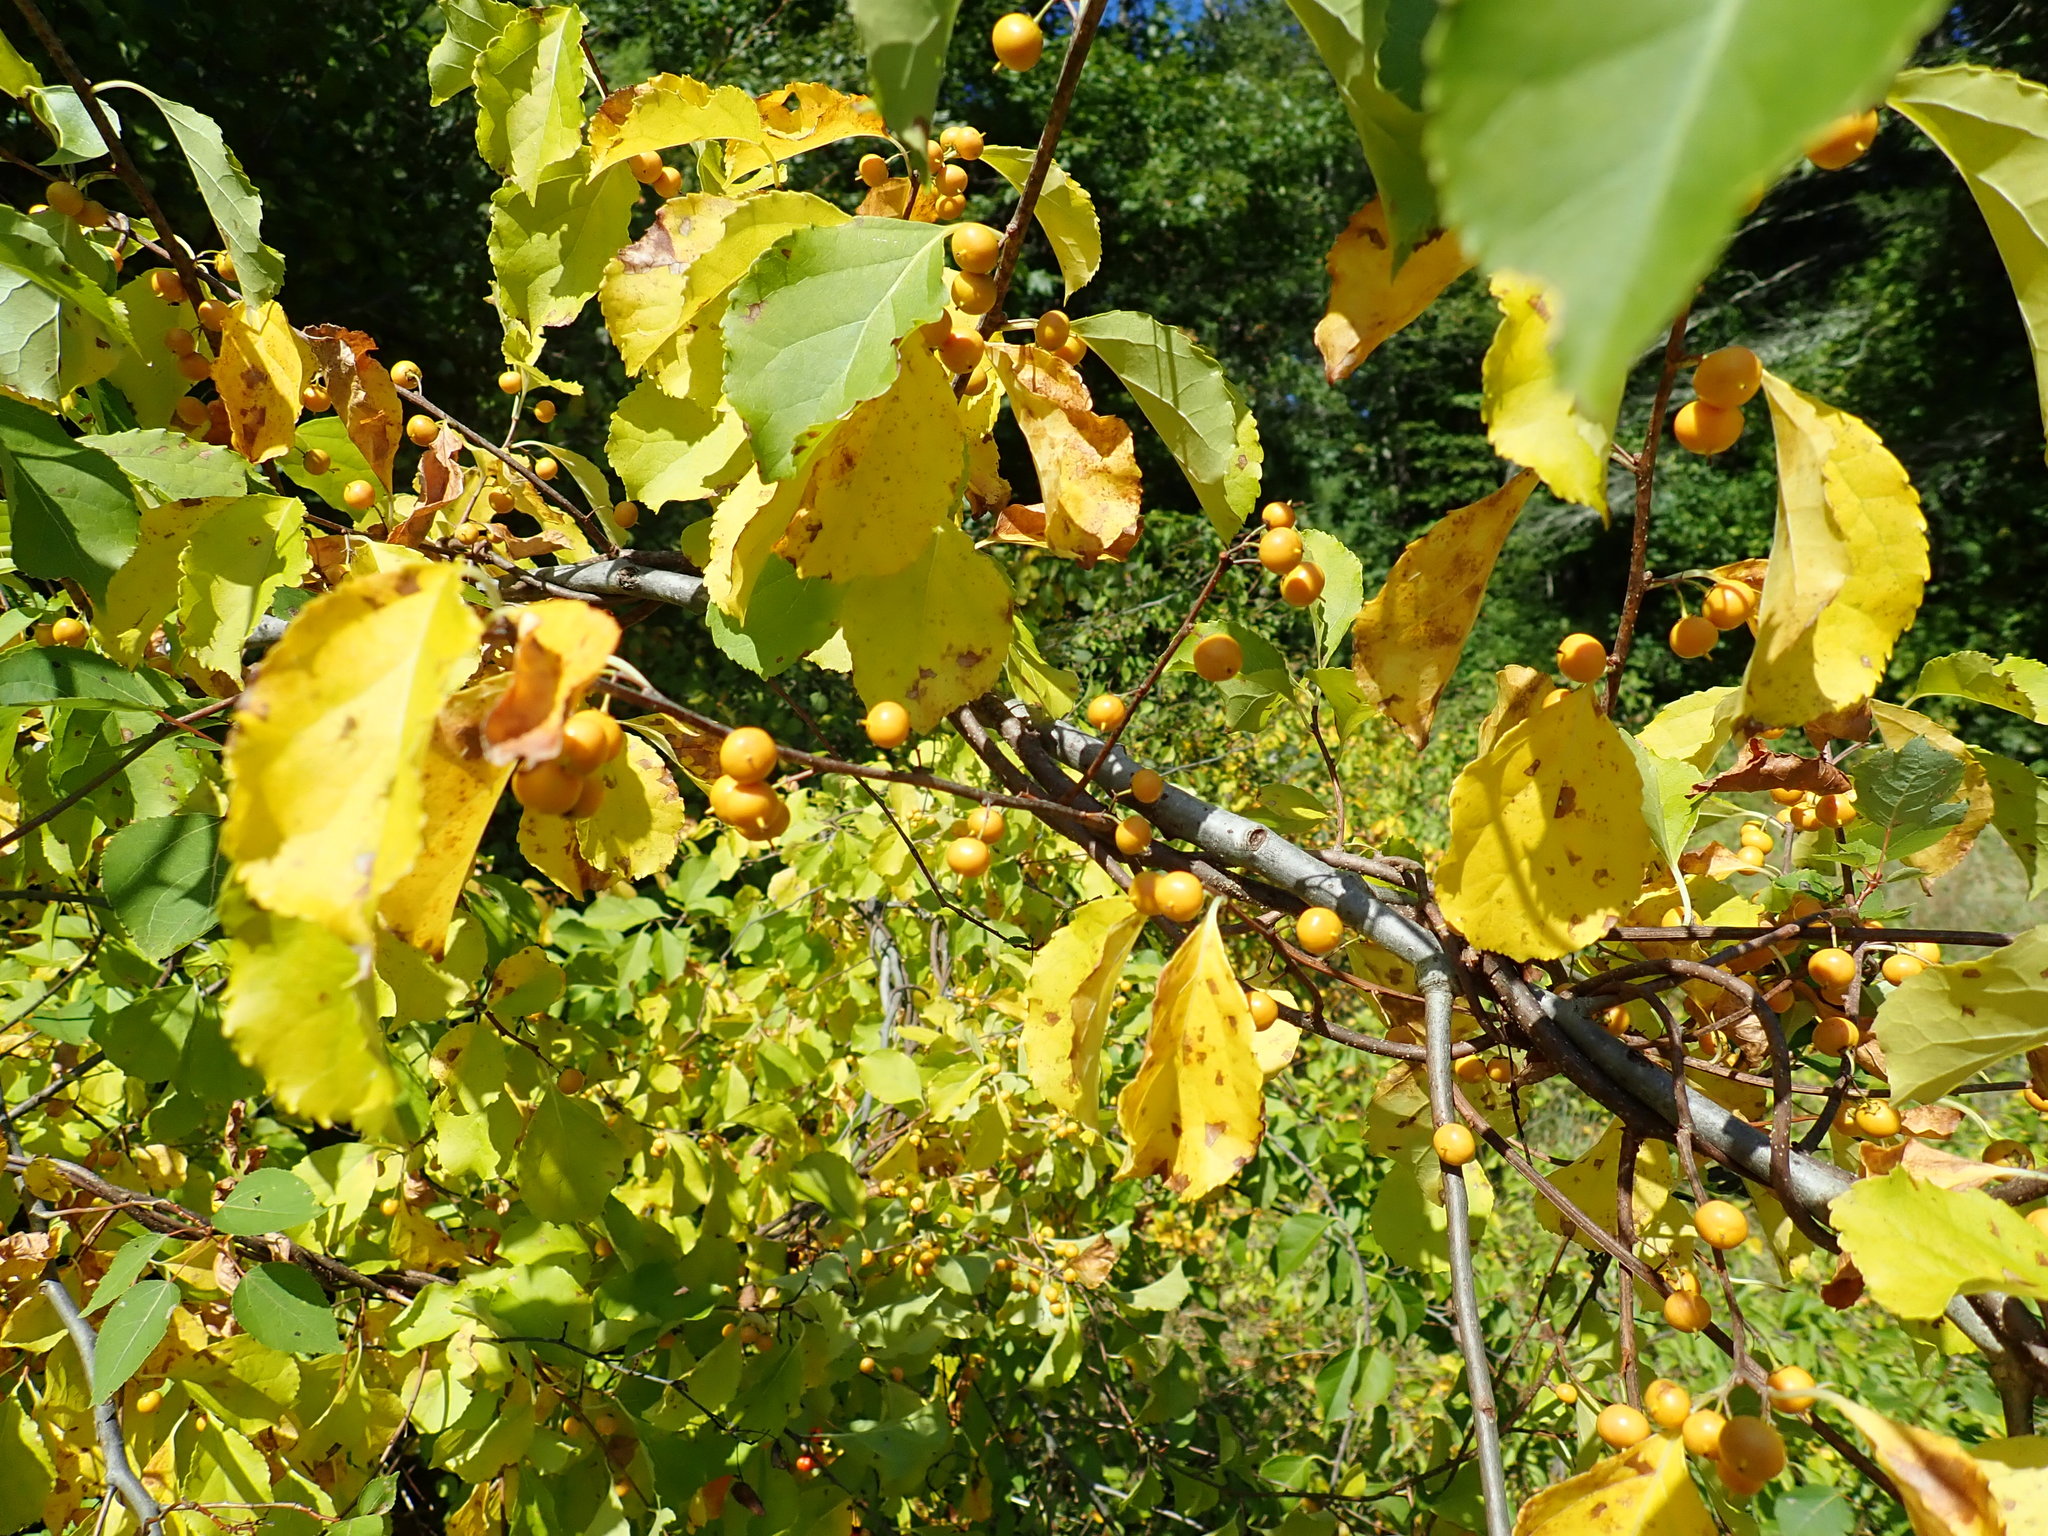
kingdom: Plantae
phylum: Tracheophyta
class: Magnoliopsida
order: Celastrales
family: Celastraceae
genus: Celastrus
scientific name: Celastrus orbiculatus
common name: Oriental bittersweet
